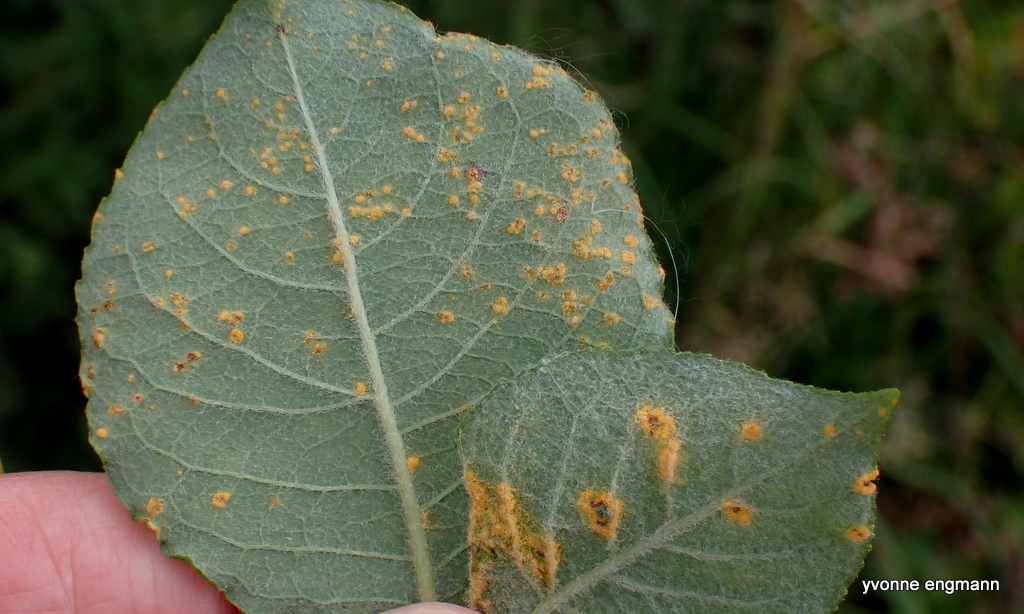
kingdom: Fungi
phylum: Basidiomycota
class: Pucciniomycetes
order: Pucciniales
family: Melampsoraceae
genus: Melampsora
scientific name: Melampsora
